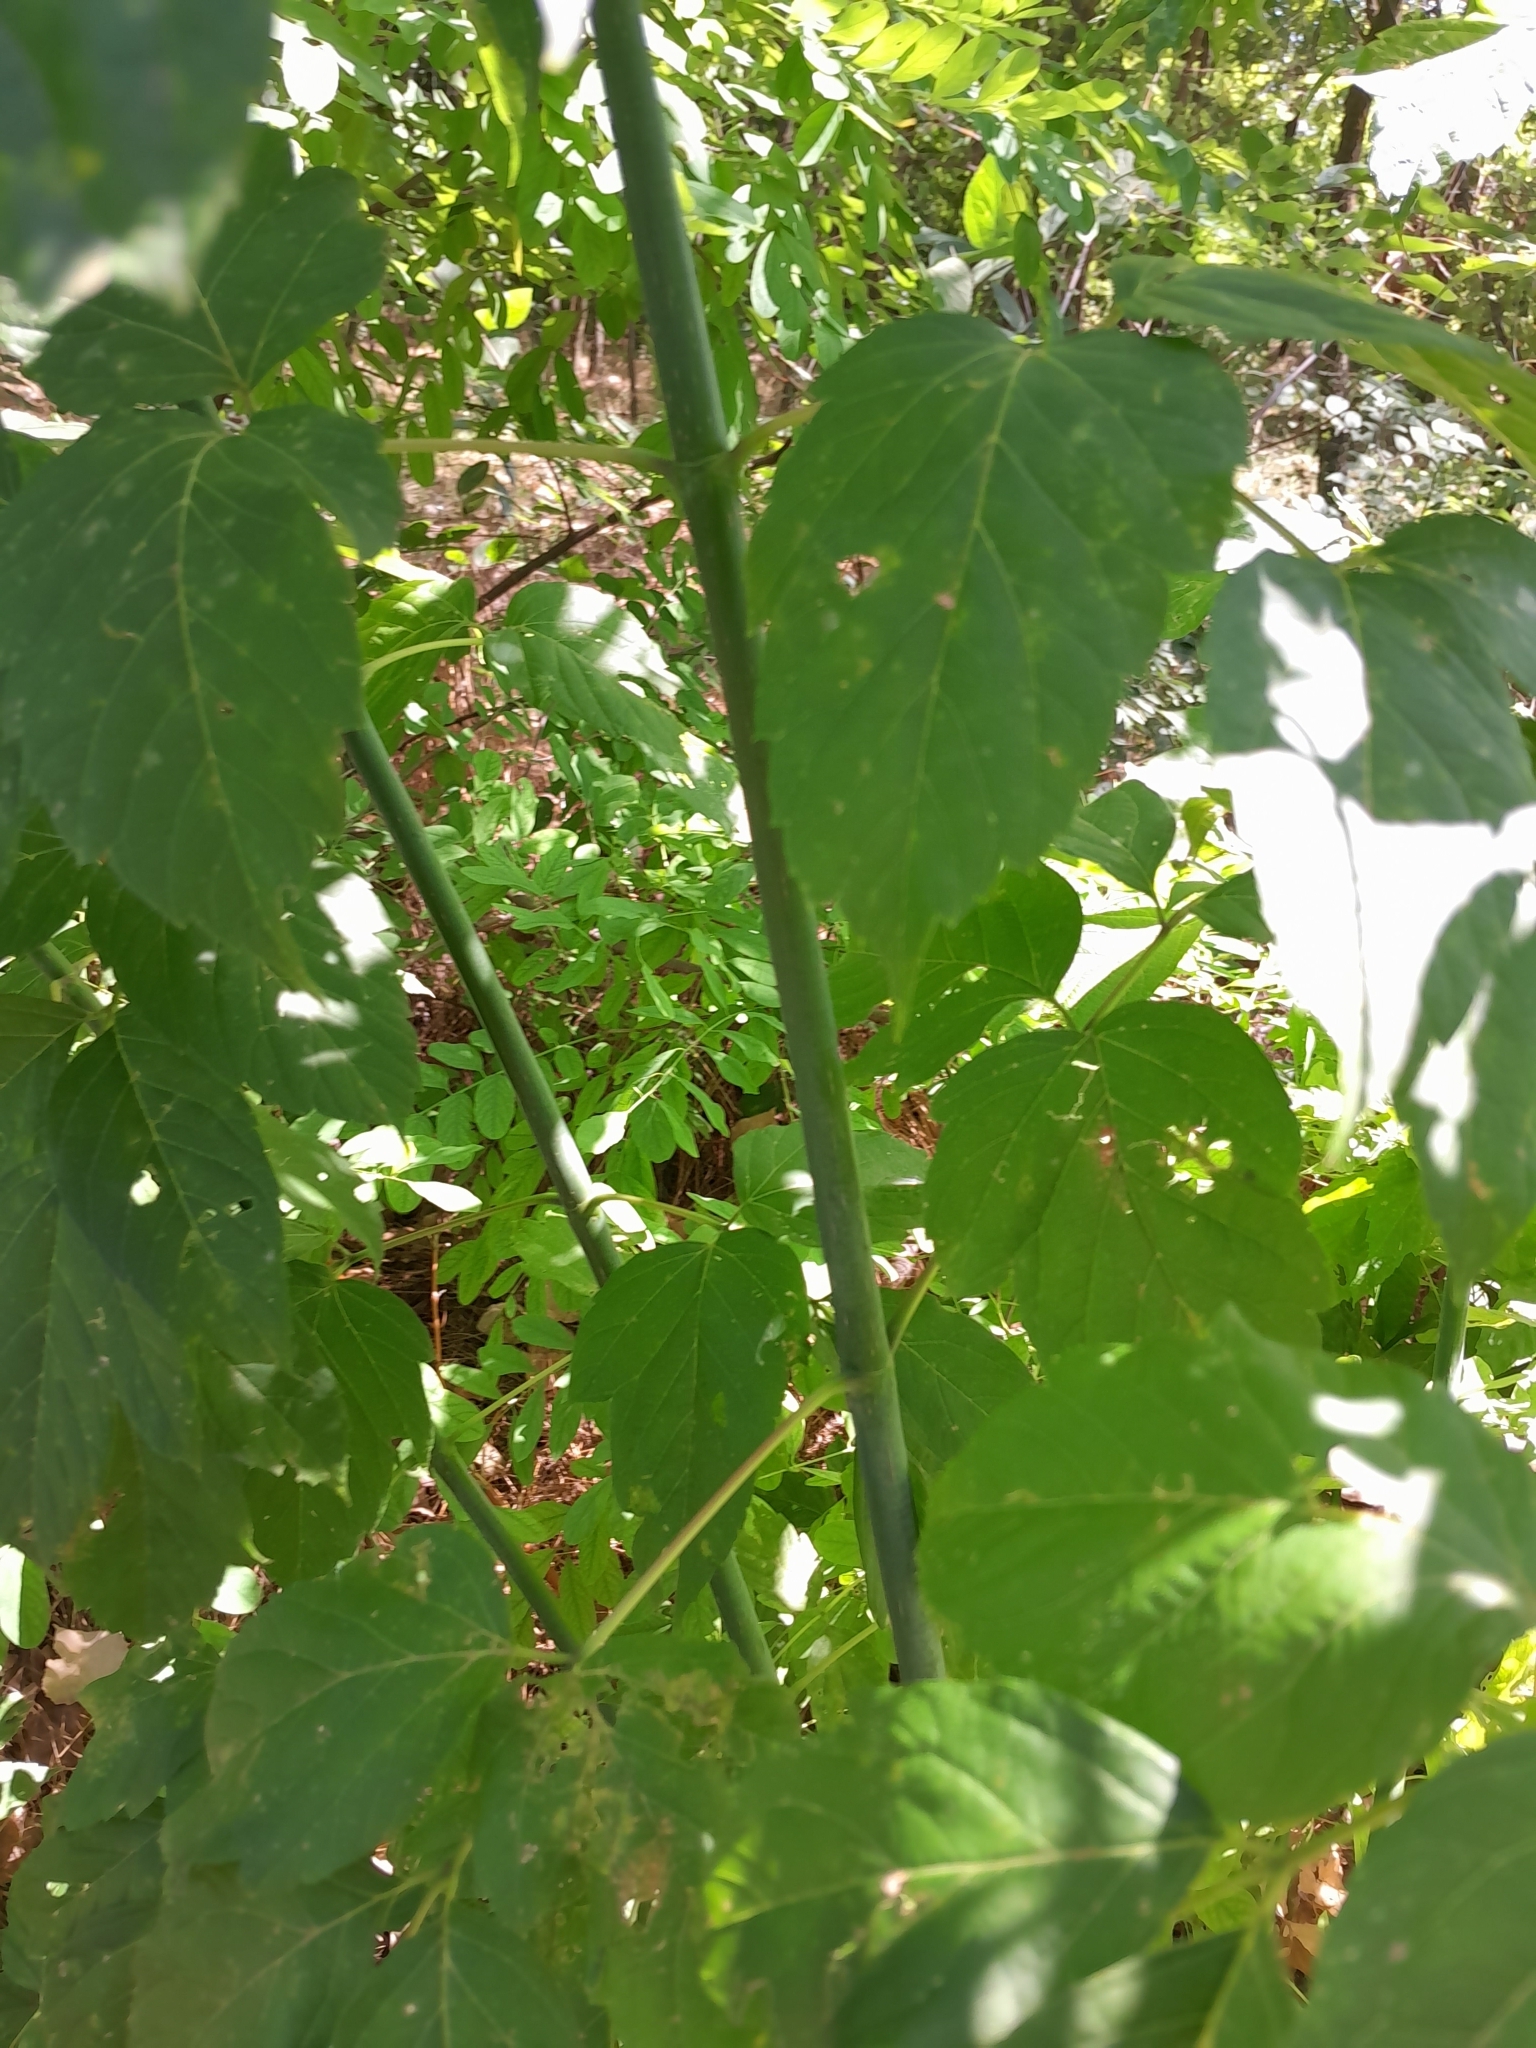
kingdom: Plantae
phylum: Tracheophyta
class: Magnoliopsida
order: Sapindales
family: Sapindaceae
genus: Acer
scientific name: Acer negundo
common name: Ashleaf maple
